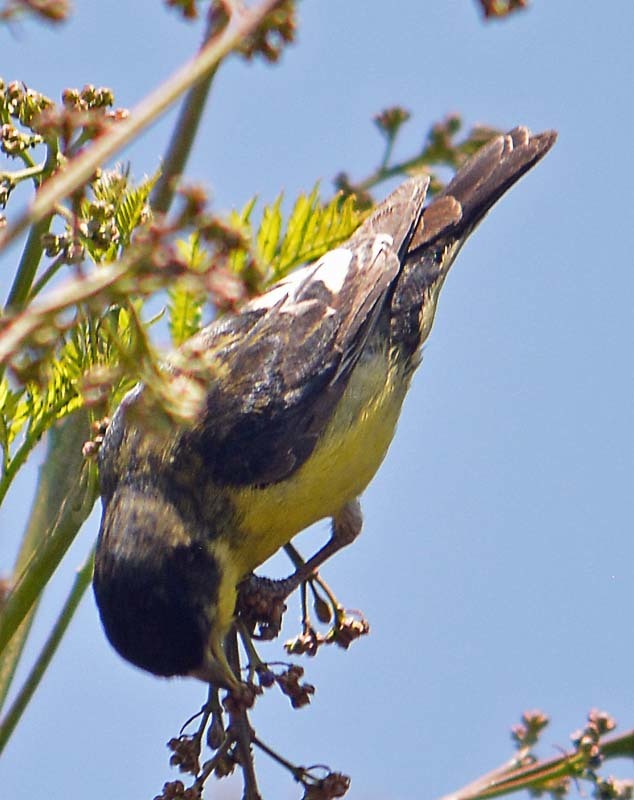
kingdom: Animalia
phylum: Chordata
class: Aves
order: Passeriformes
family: Fringillidae
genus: Spinus
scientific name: Spinus psaltria
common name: Lesser goldfinch
